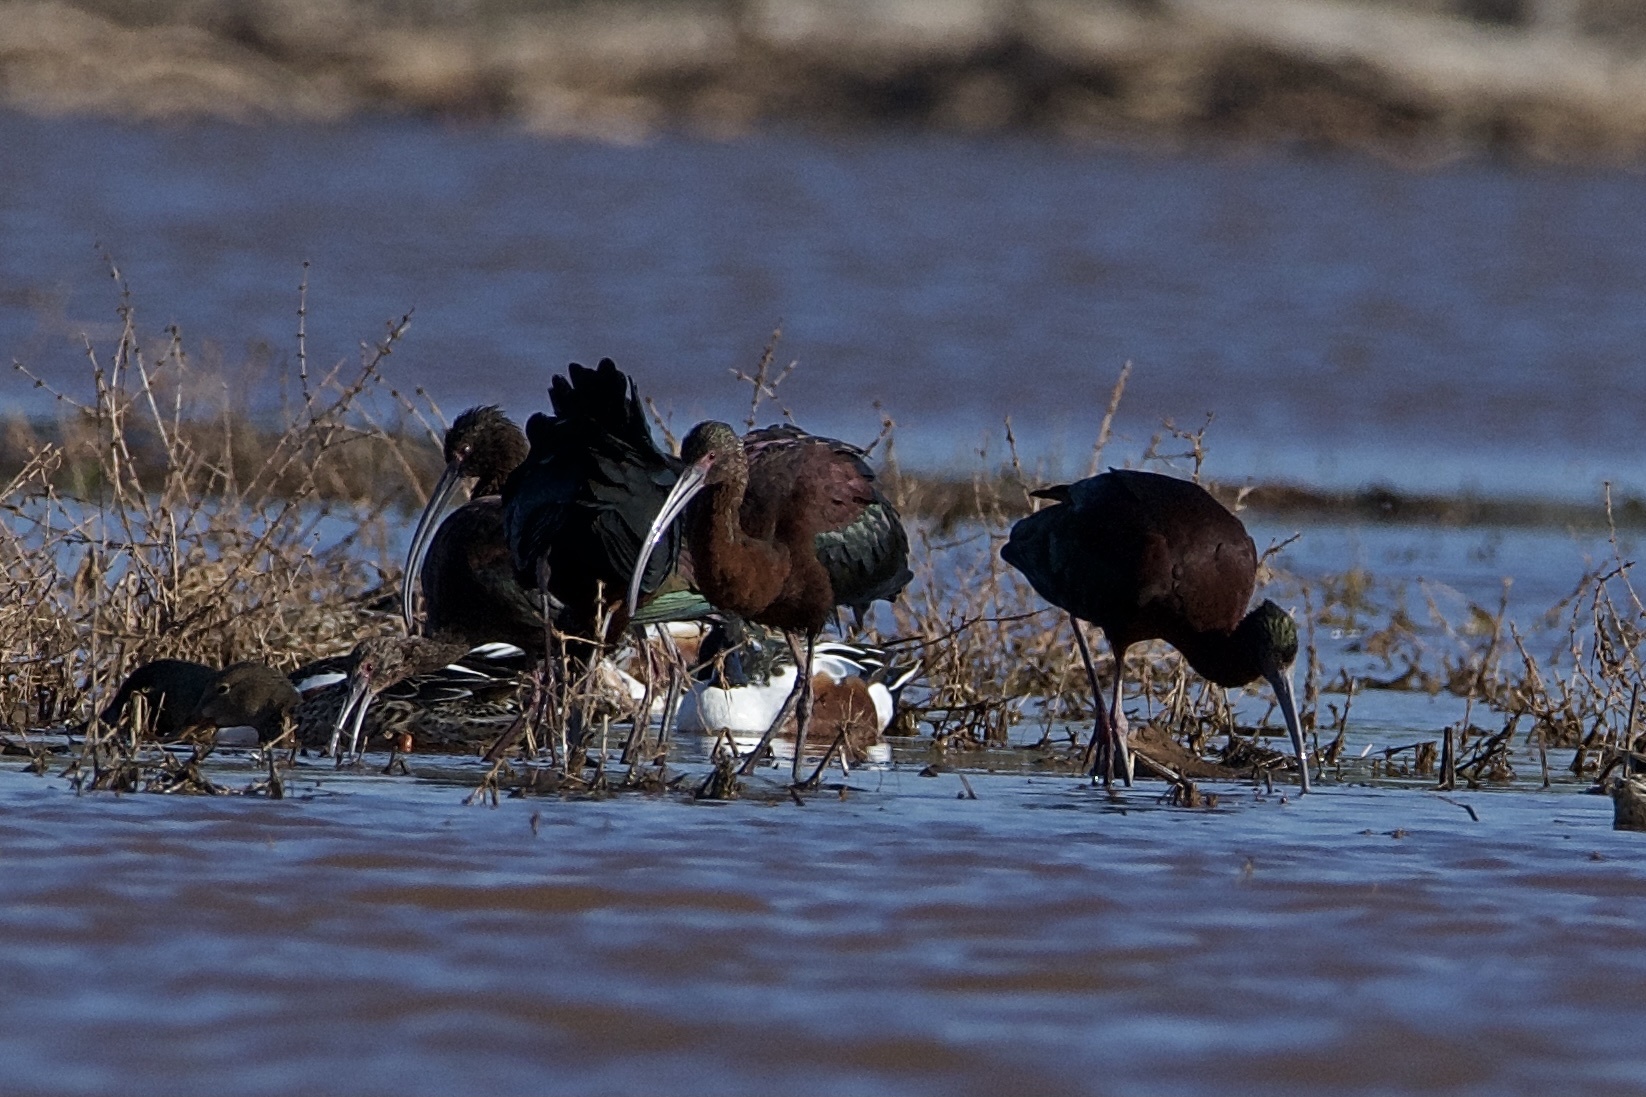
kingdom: Animalia
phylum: Chordata
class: Aves
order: Pelecaniformes
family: Threskiornithidae
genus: Plegadis
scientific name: Plegadis chihi
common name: White-faced ibis
